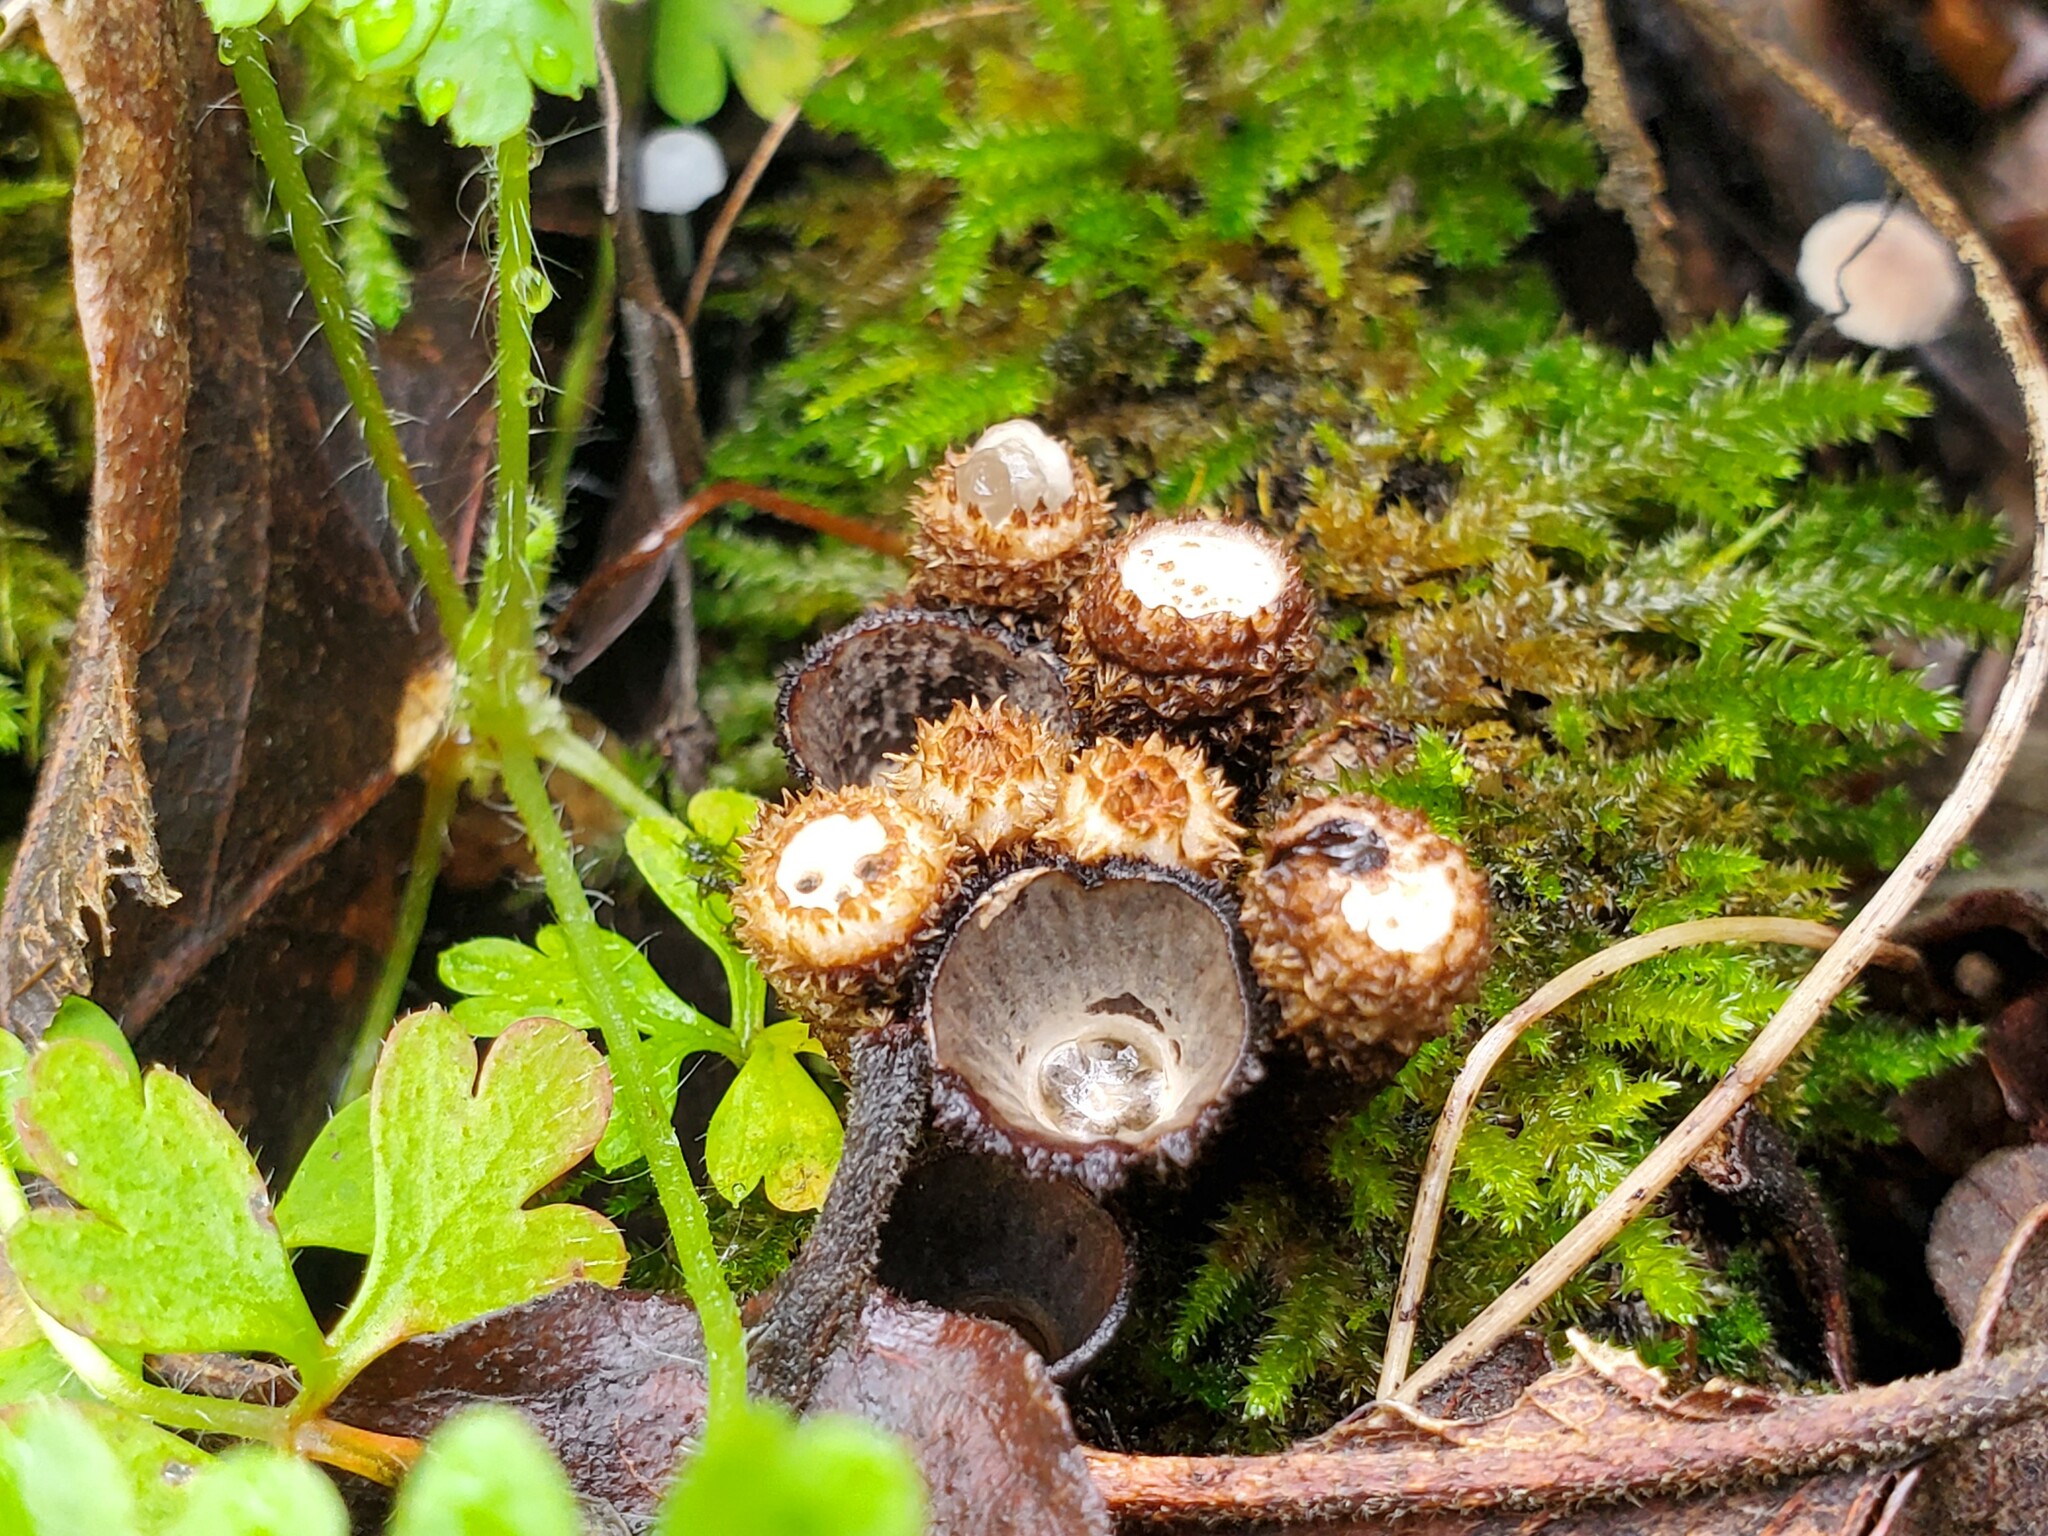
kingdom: Fungi
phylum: Basidiomycota
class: Agaricomycetes
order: Agaricales
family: Agaricaceae
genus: Cyathus
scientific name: Cyathus striatus
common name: Fluted bird's nest
